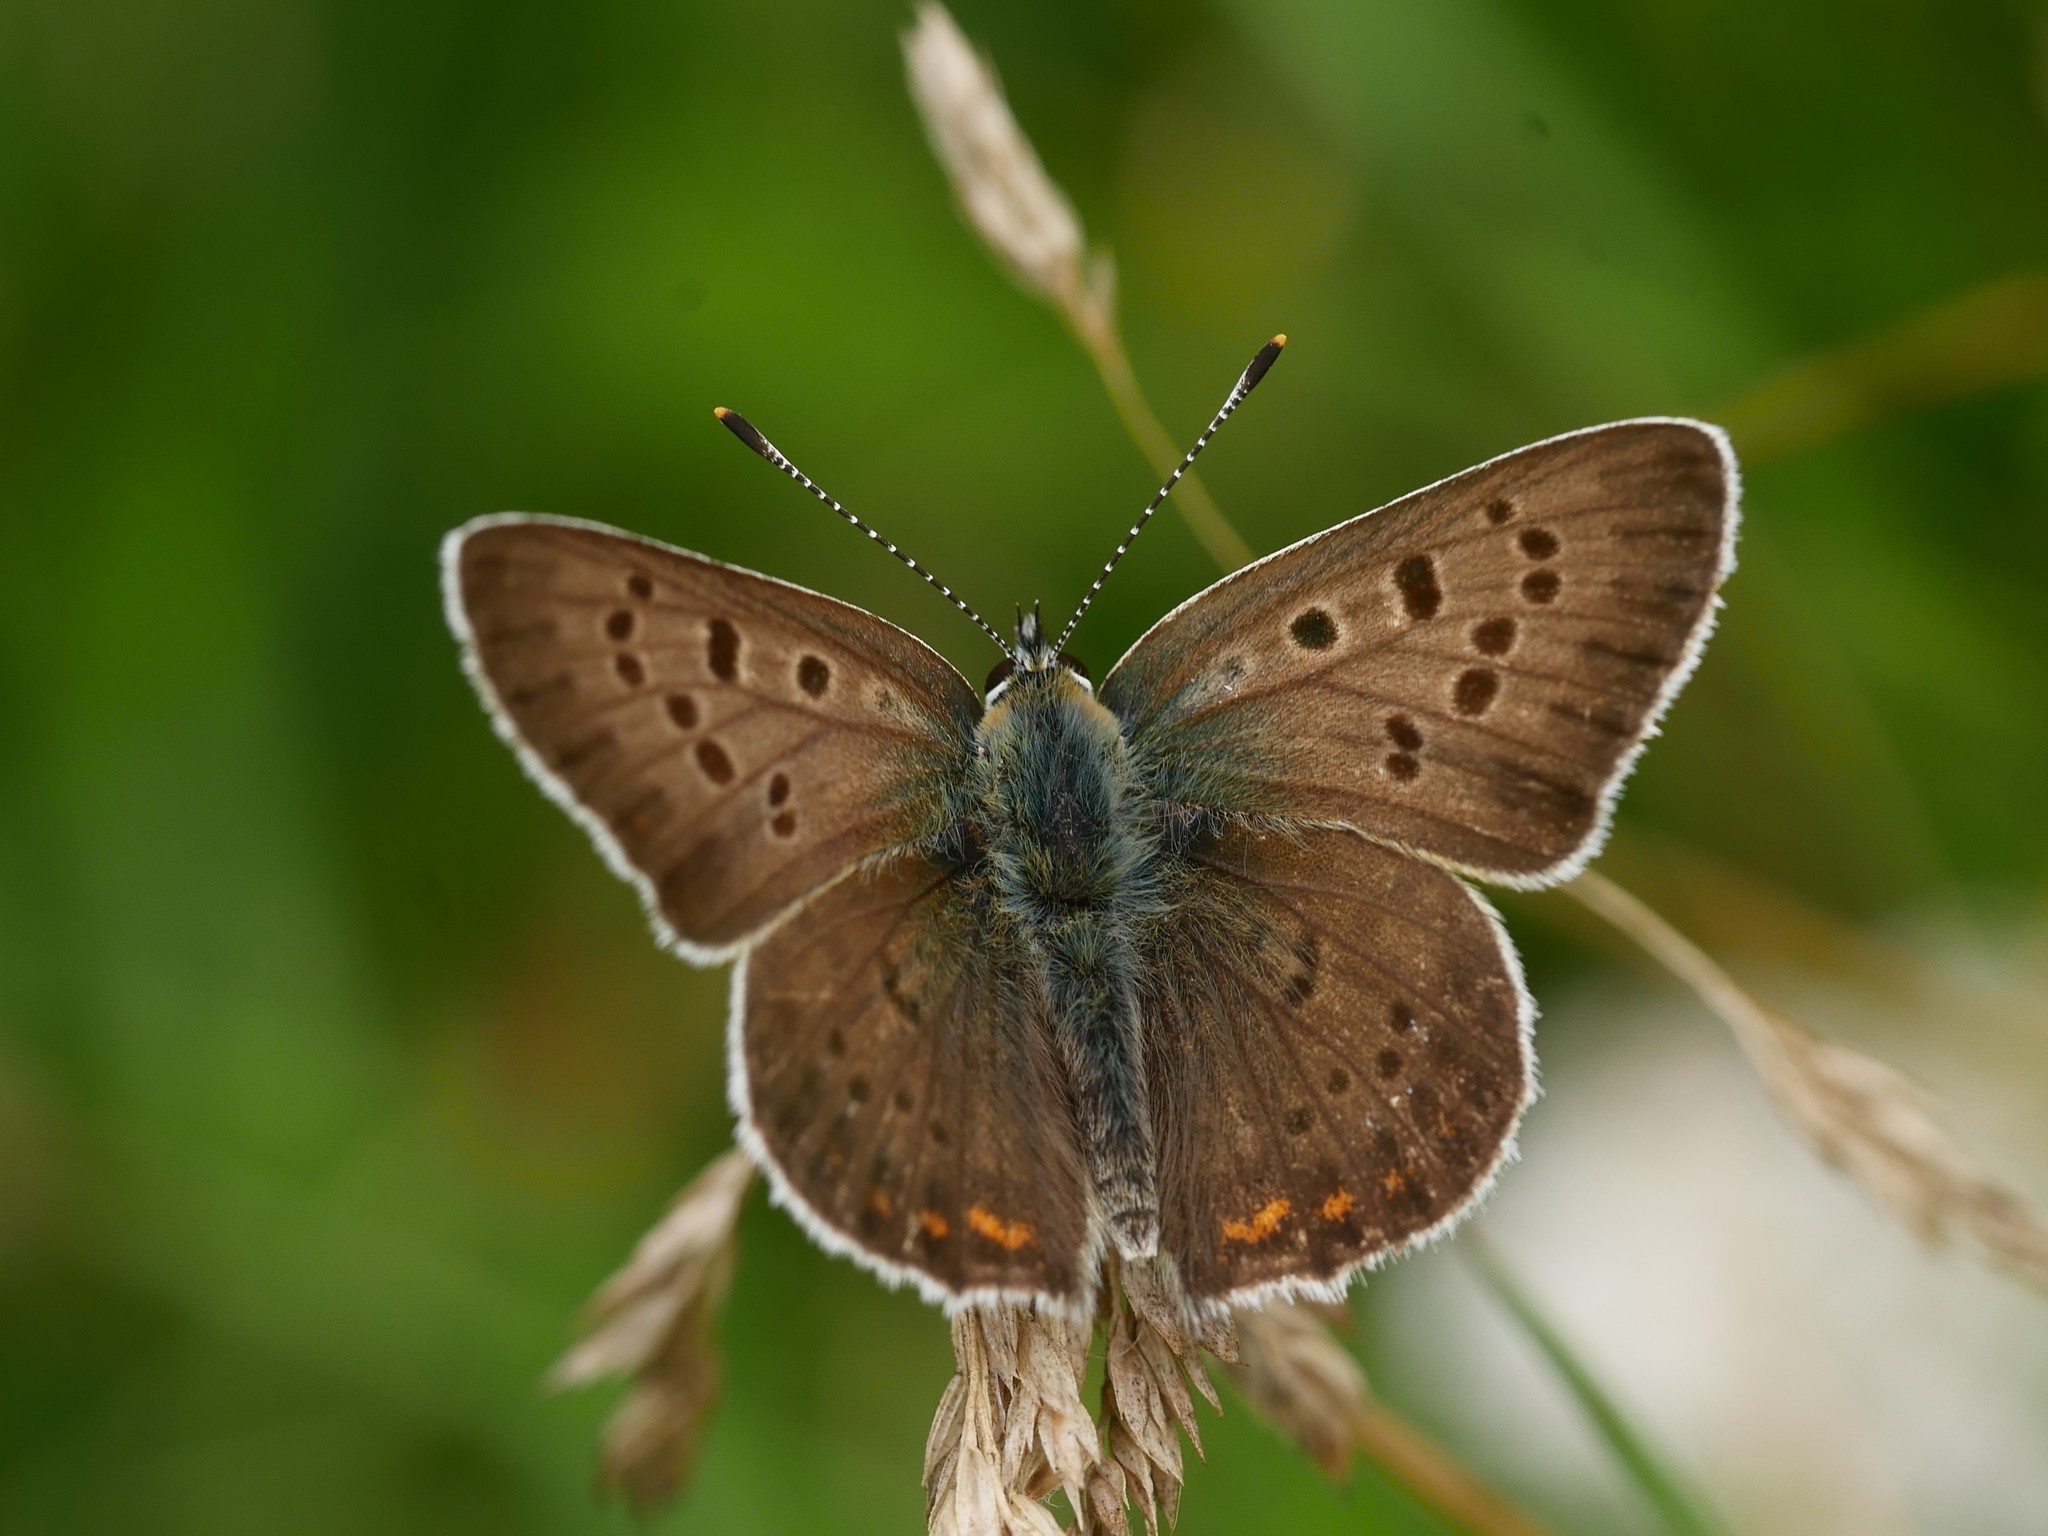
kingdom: Animalia
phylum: Arthropoda
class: Insecta
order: Lepidoptera
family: Lycaenidae
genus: Loweia
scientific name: Loweia tityrus
